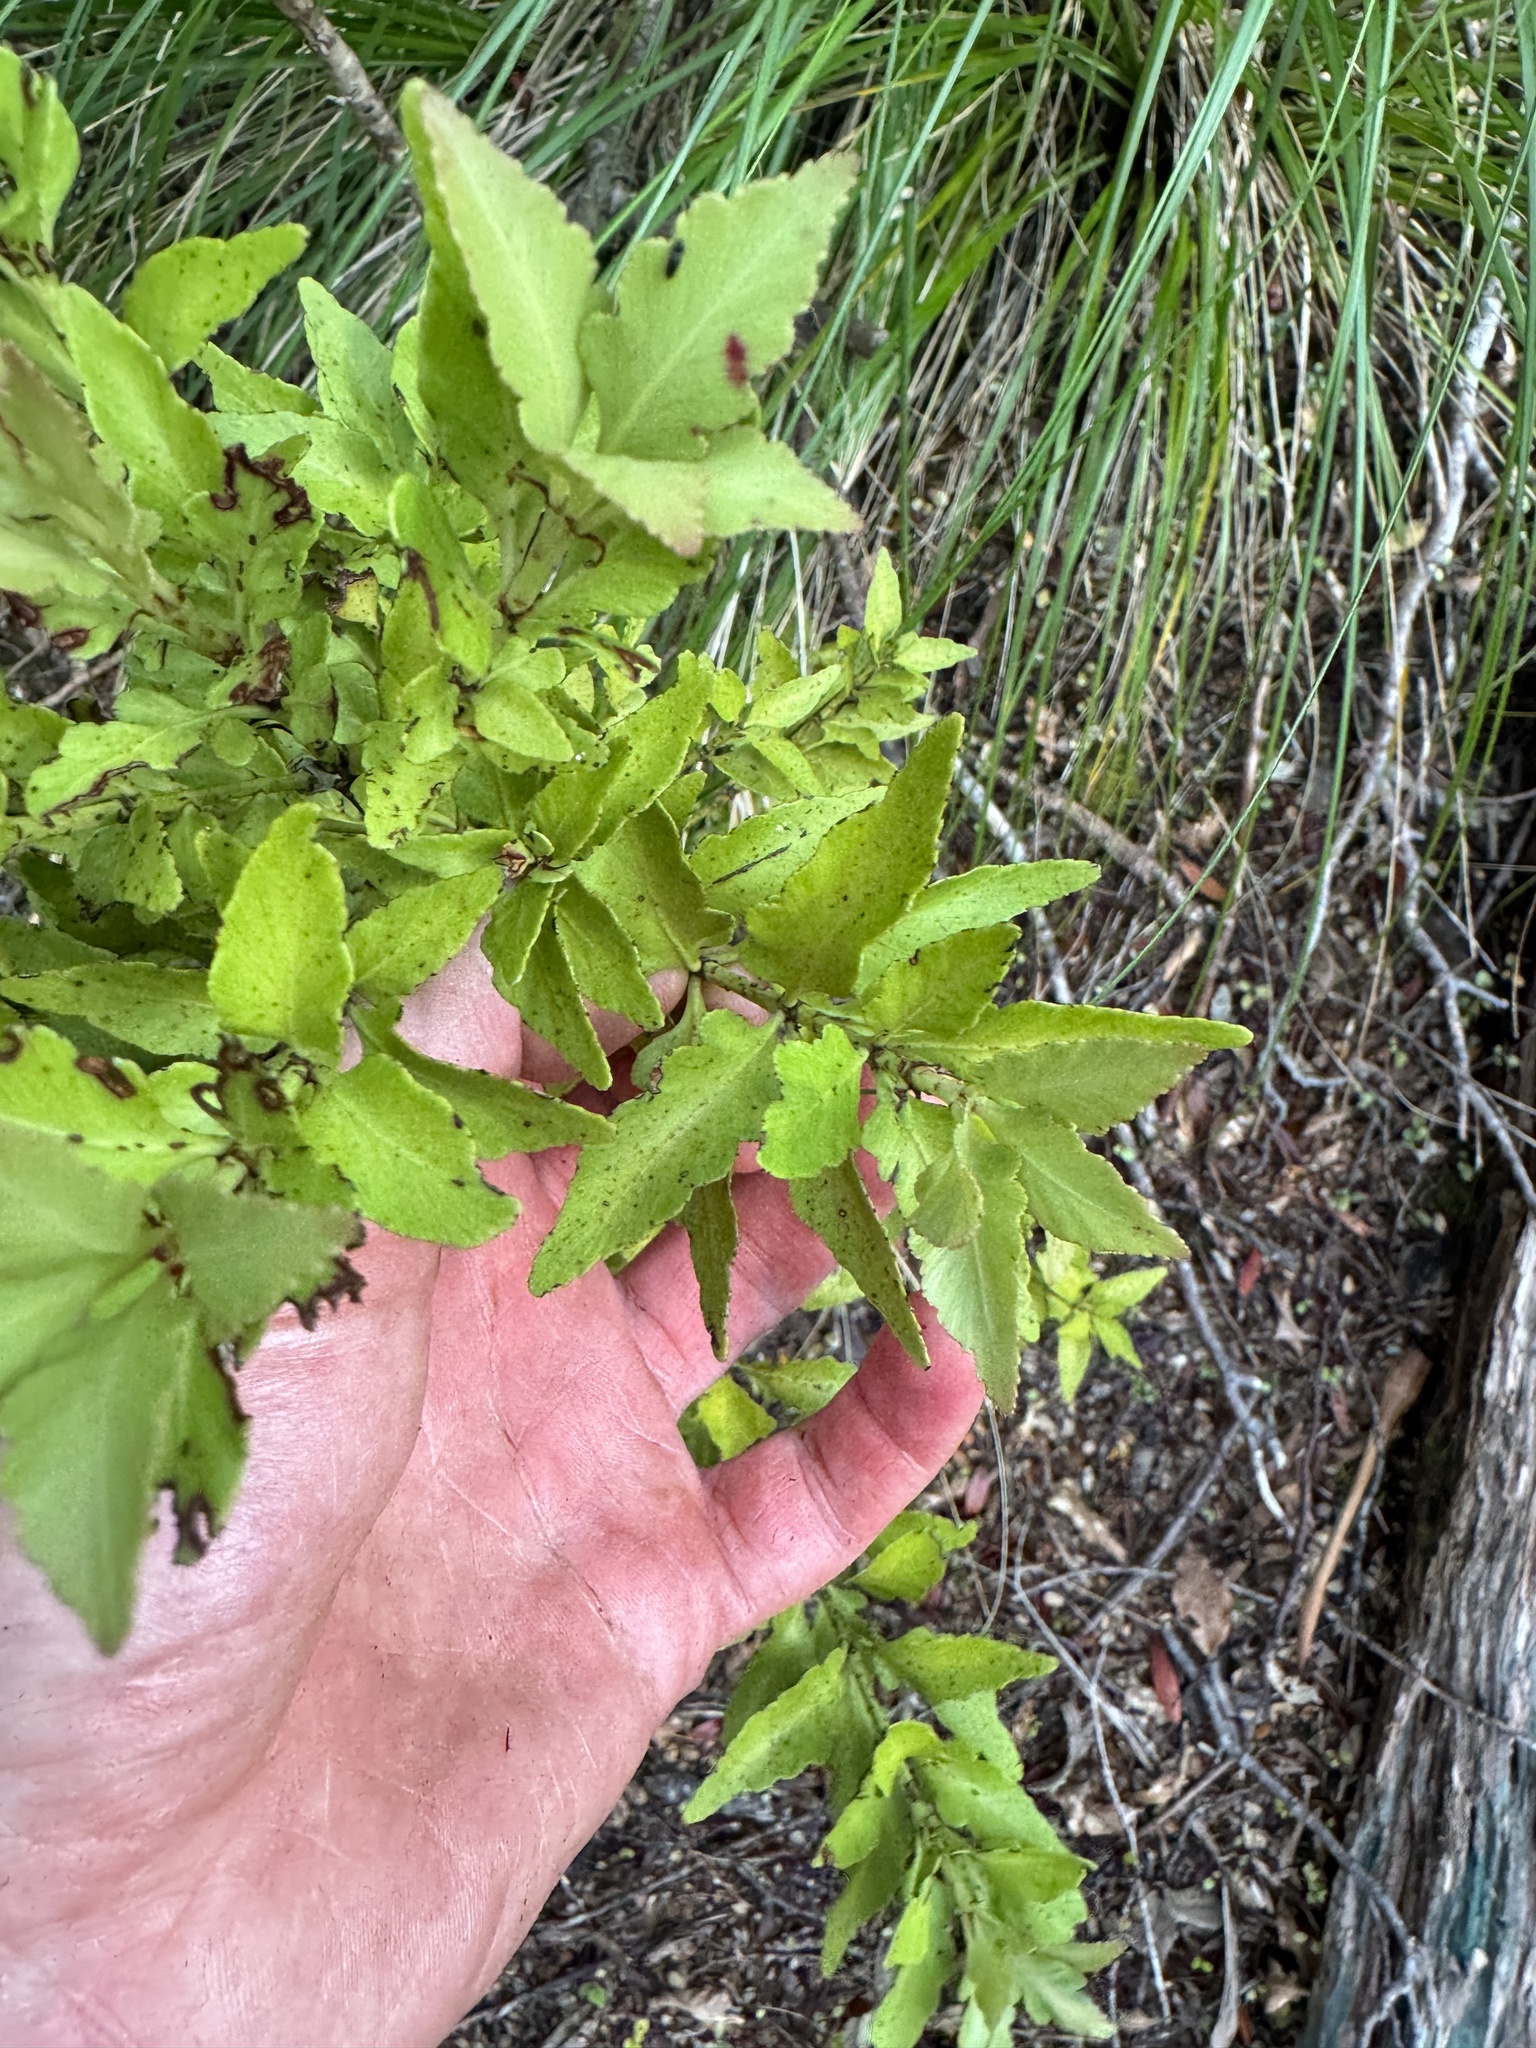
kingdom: Plantae
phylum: Tracheophyta
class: Pinopsida
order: Pinales
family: Phyllocladaceae
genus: Phyllocladus
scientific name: Phyllocladus trichomanoides
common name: Celery pine
